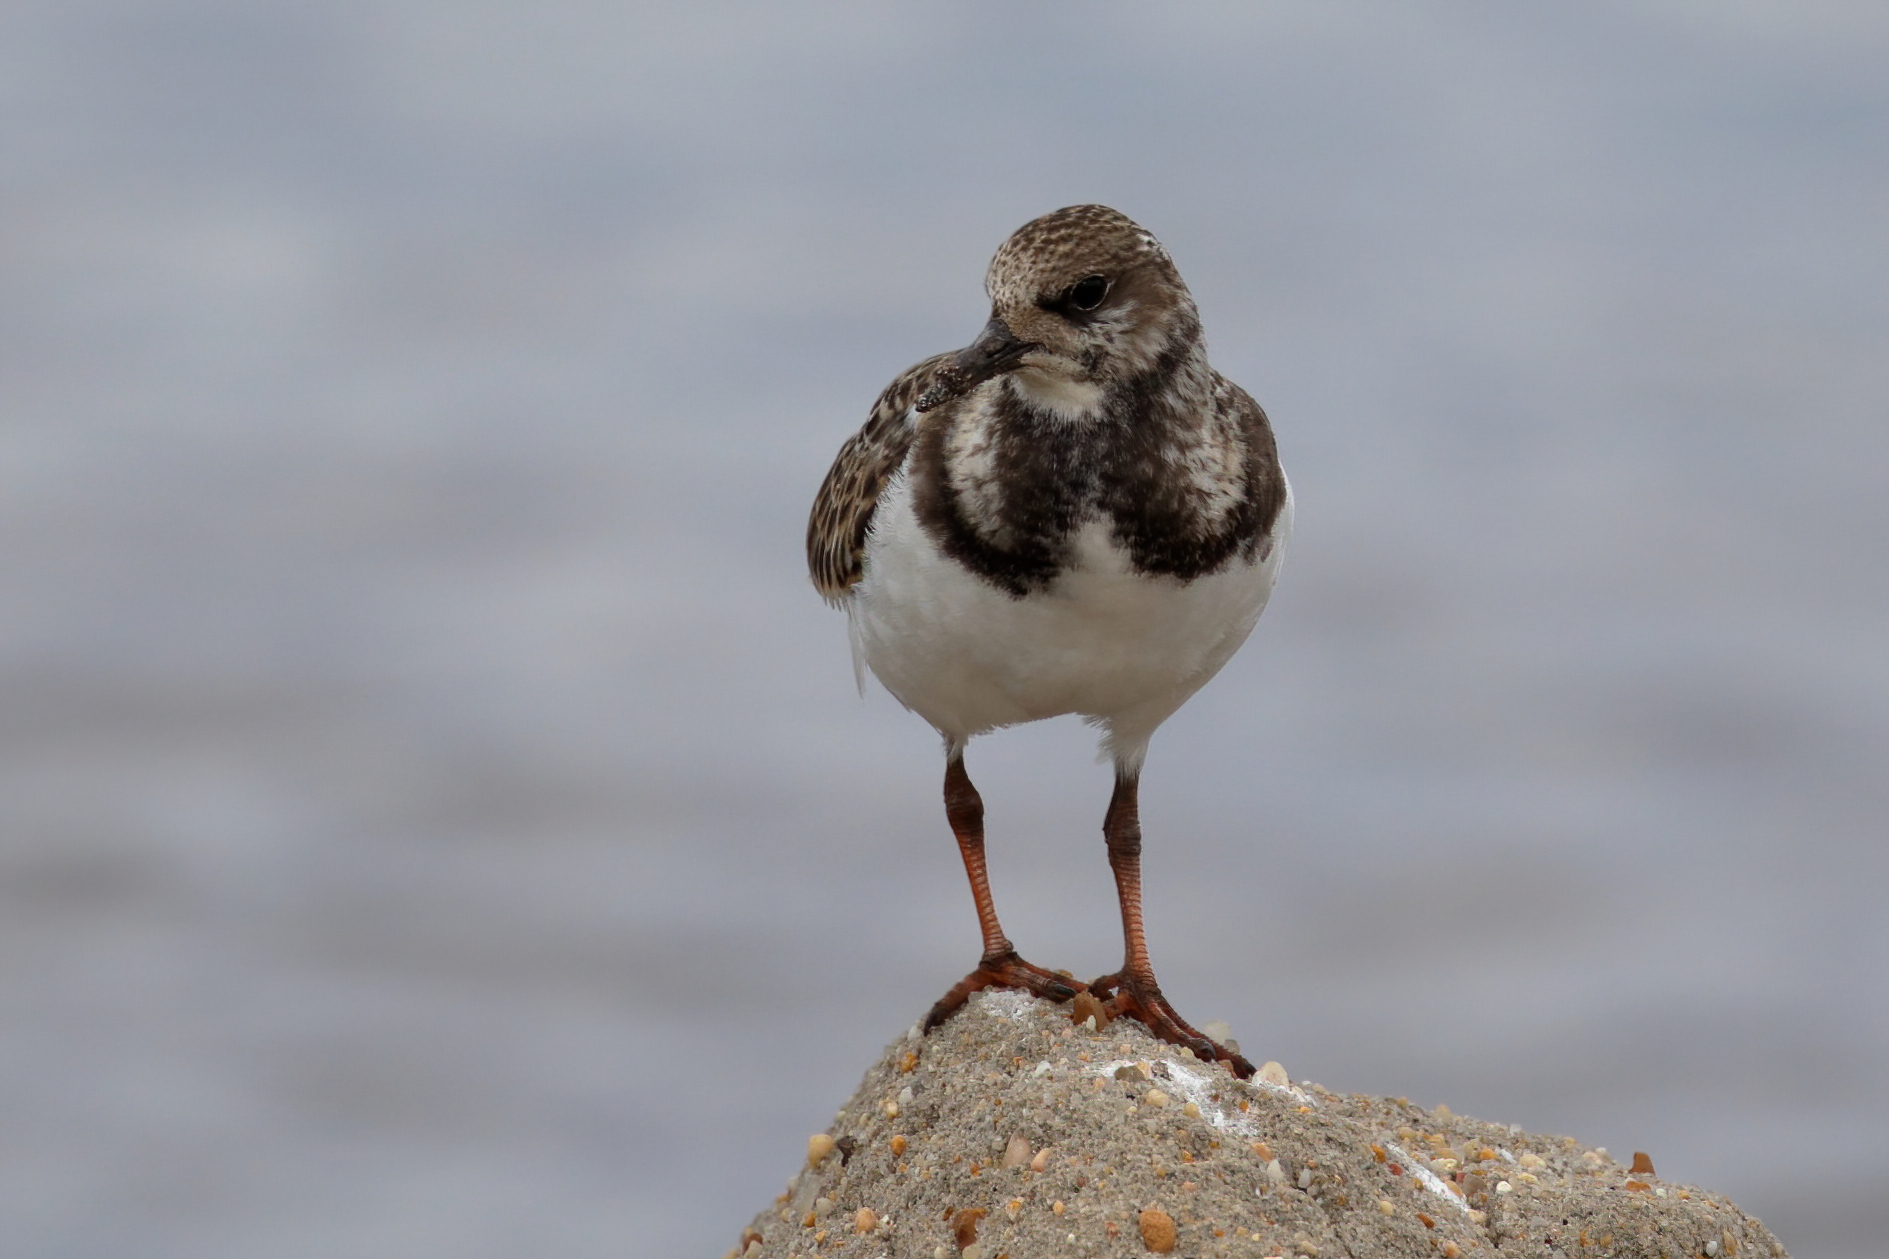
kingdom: Animalia
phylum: Chordata
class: Aves
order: Charadriiformes
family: Scolopacidae
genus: Arenaria
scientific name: Arenaria interpres
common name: Ruddy turnstone
